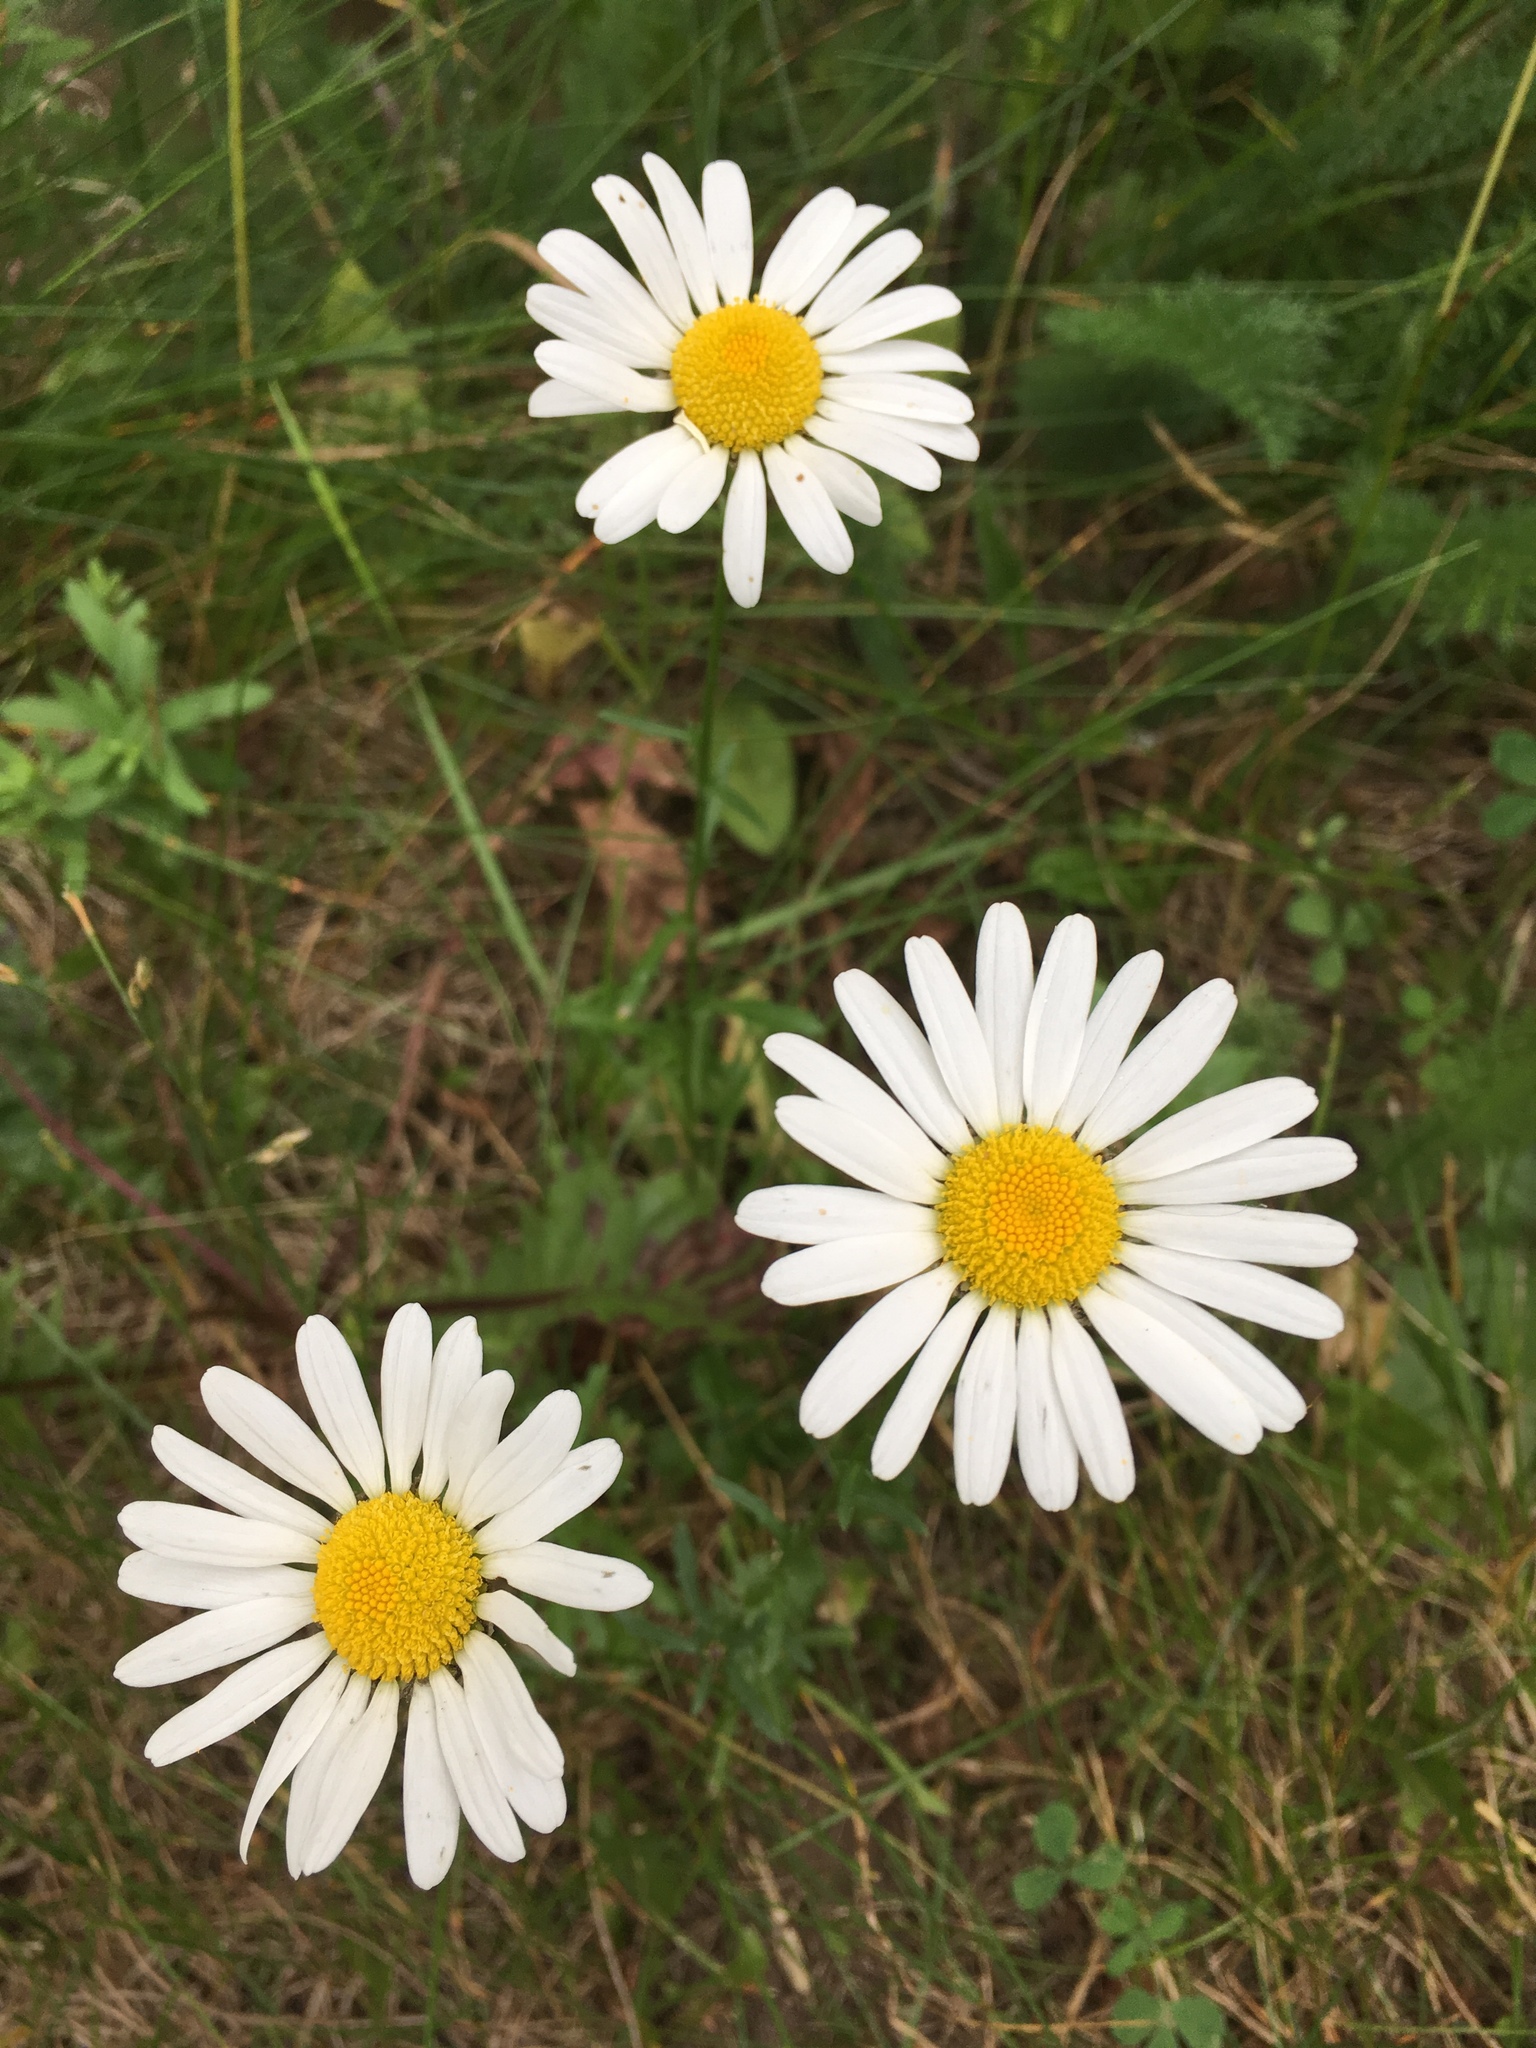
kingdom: Plantae
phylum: Tracheophyta
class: Magnoliopsida
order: Asterales
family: Asteraceae
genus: Leucanthemum
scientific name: Leucanthemum vulgare
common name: Oxeye daisy
